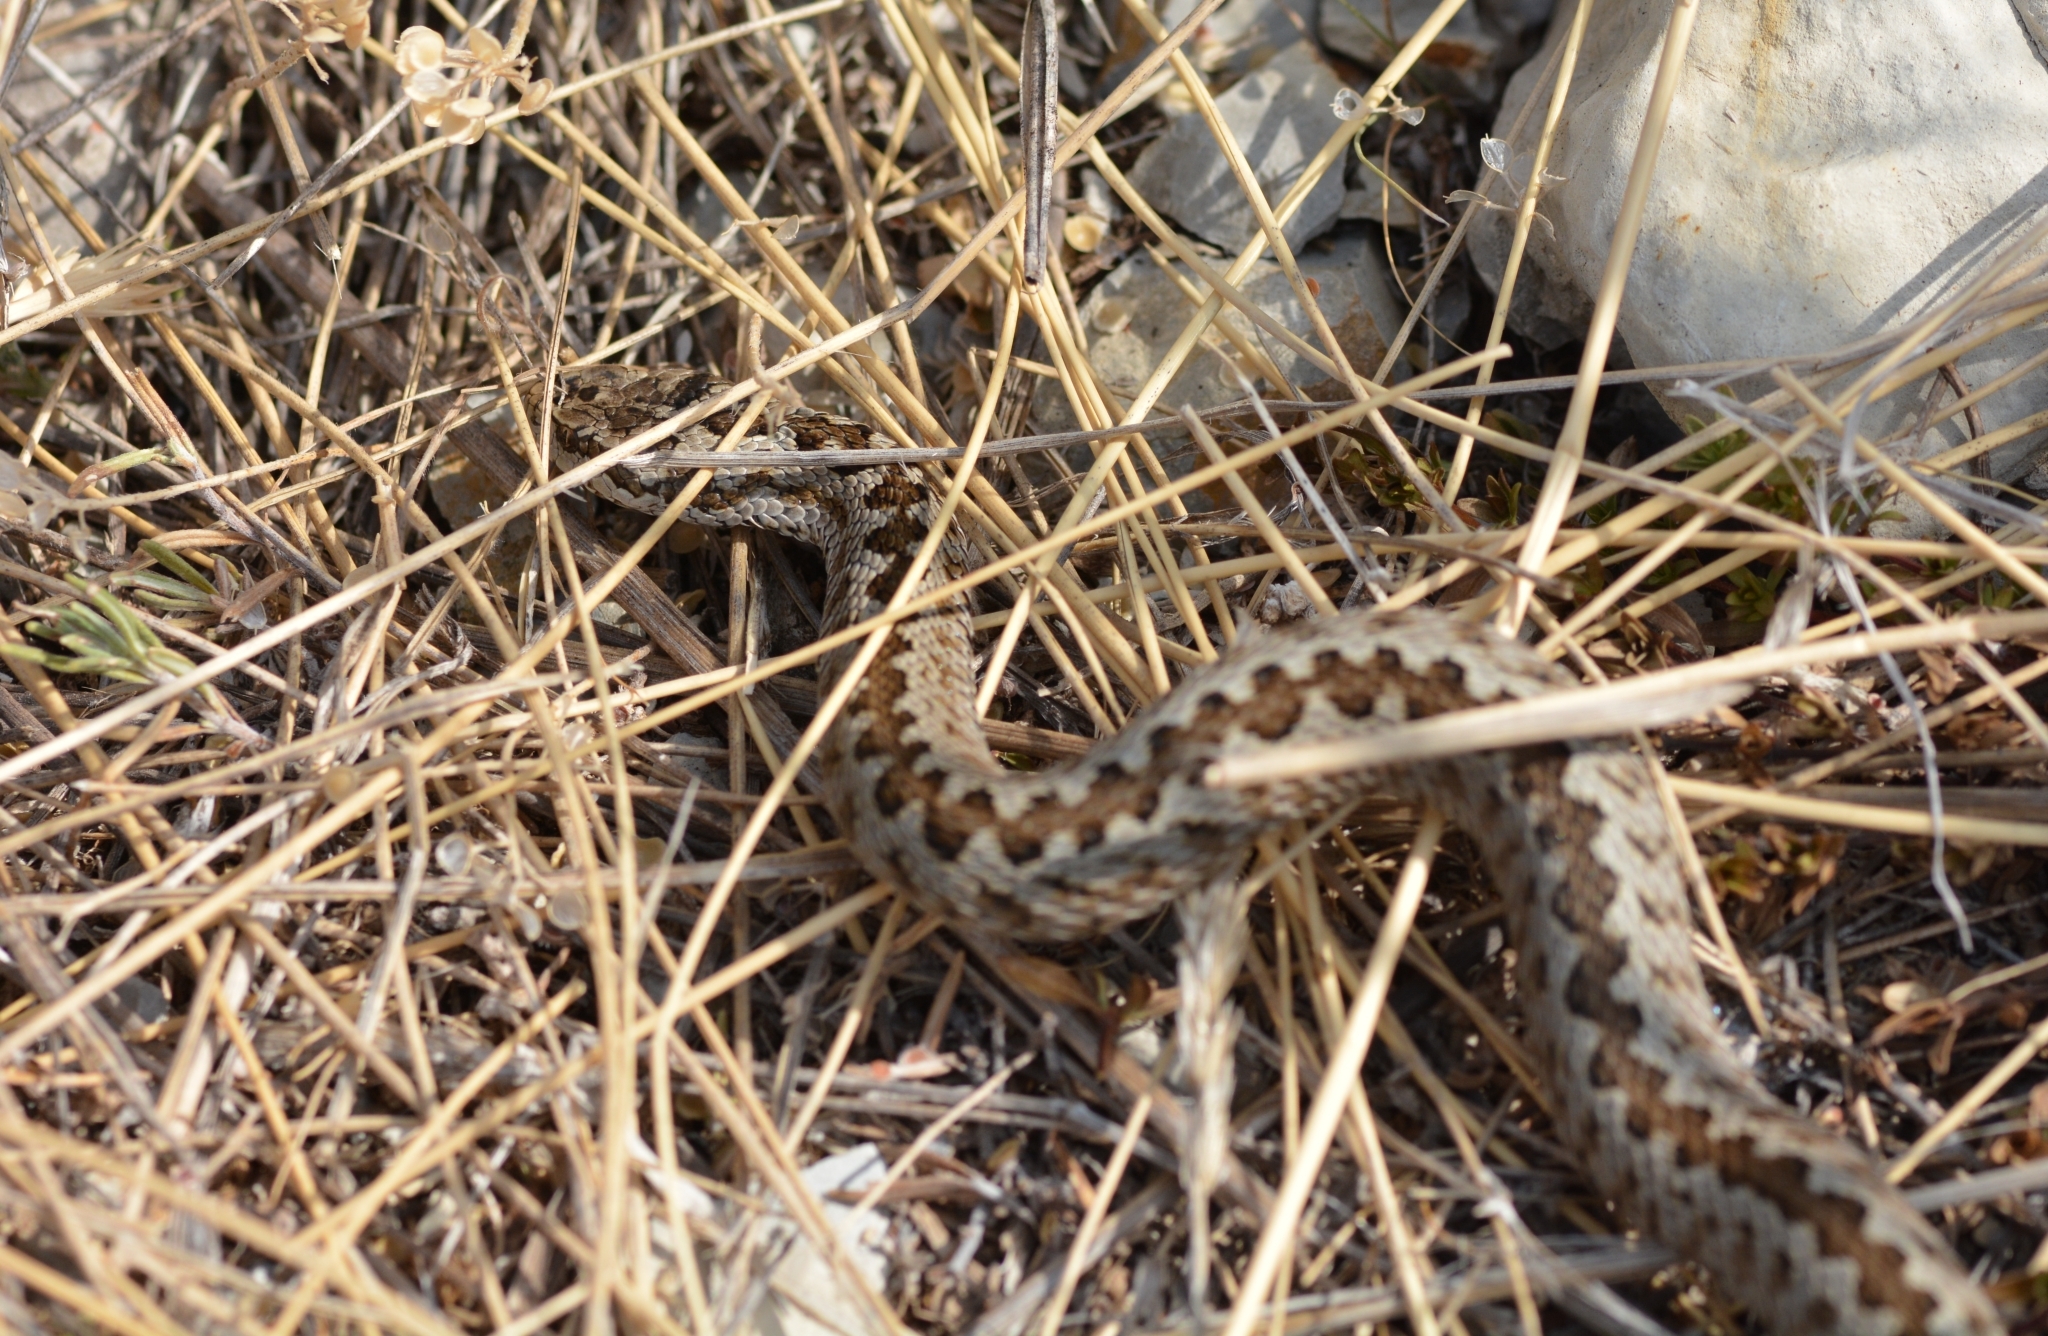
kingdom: Animalia
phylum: Chordata
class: Squamata
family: Viperidae
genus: Vipera
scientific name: Vipera ursinii
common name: Meadow viper
